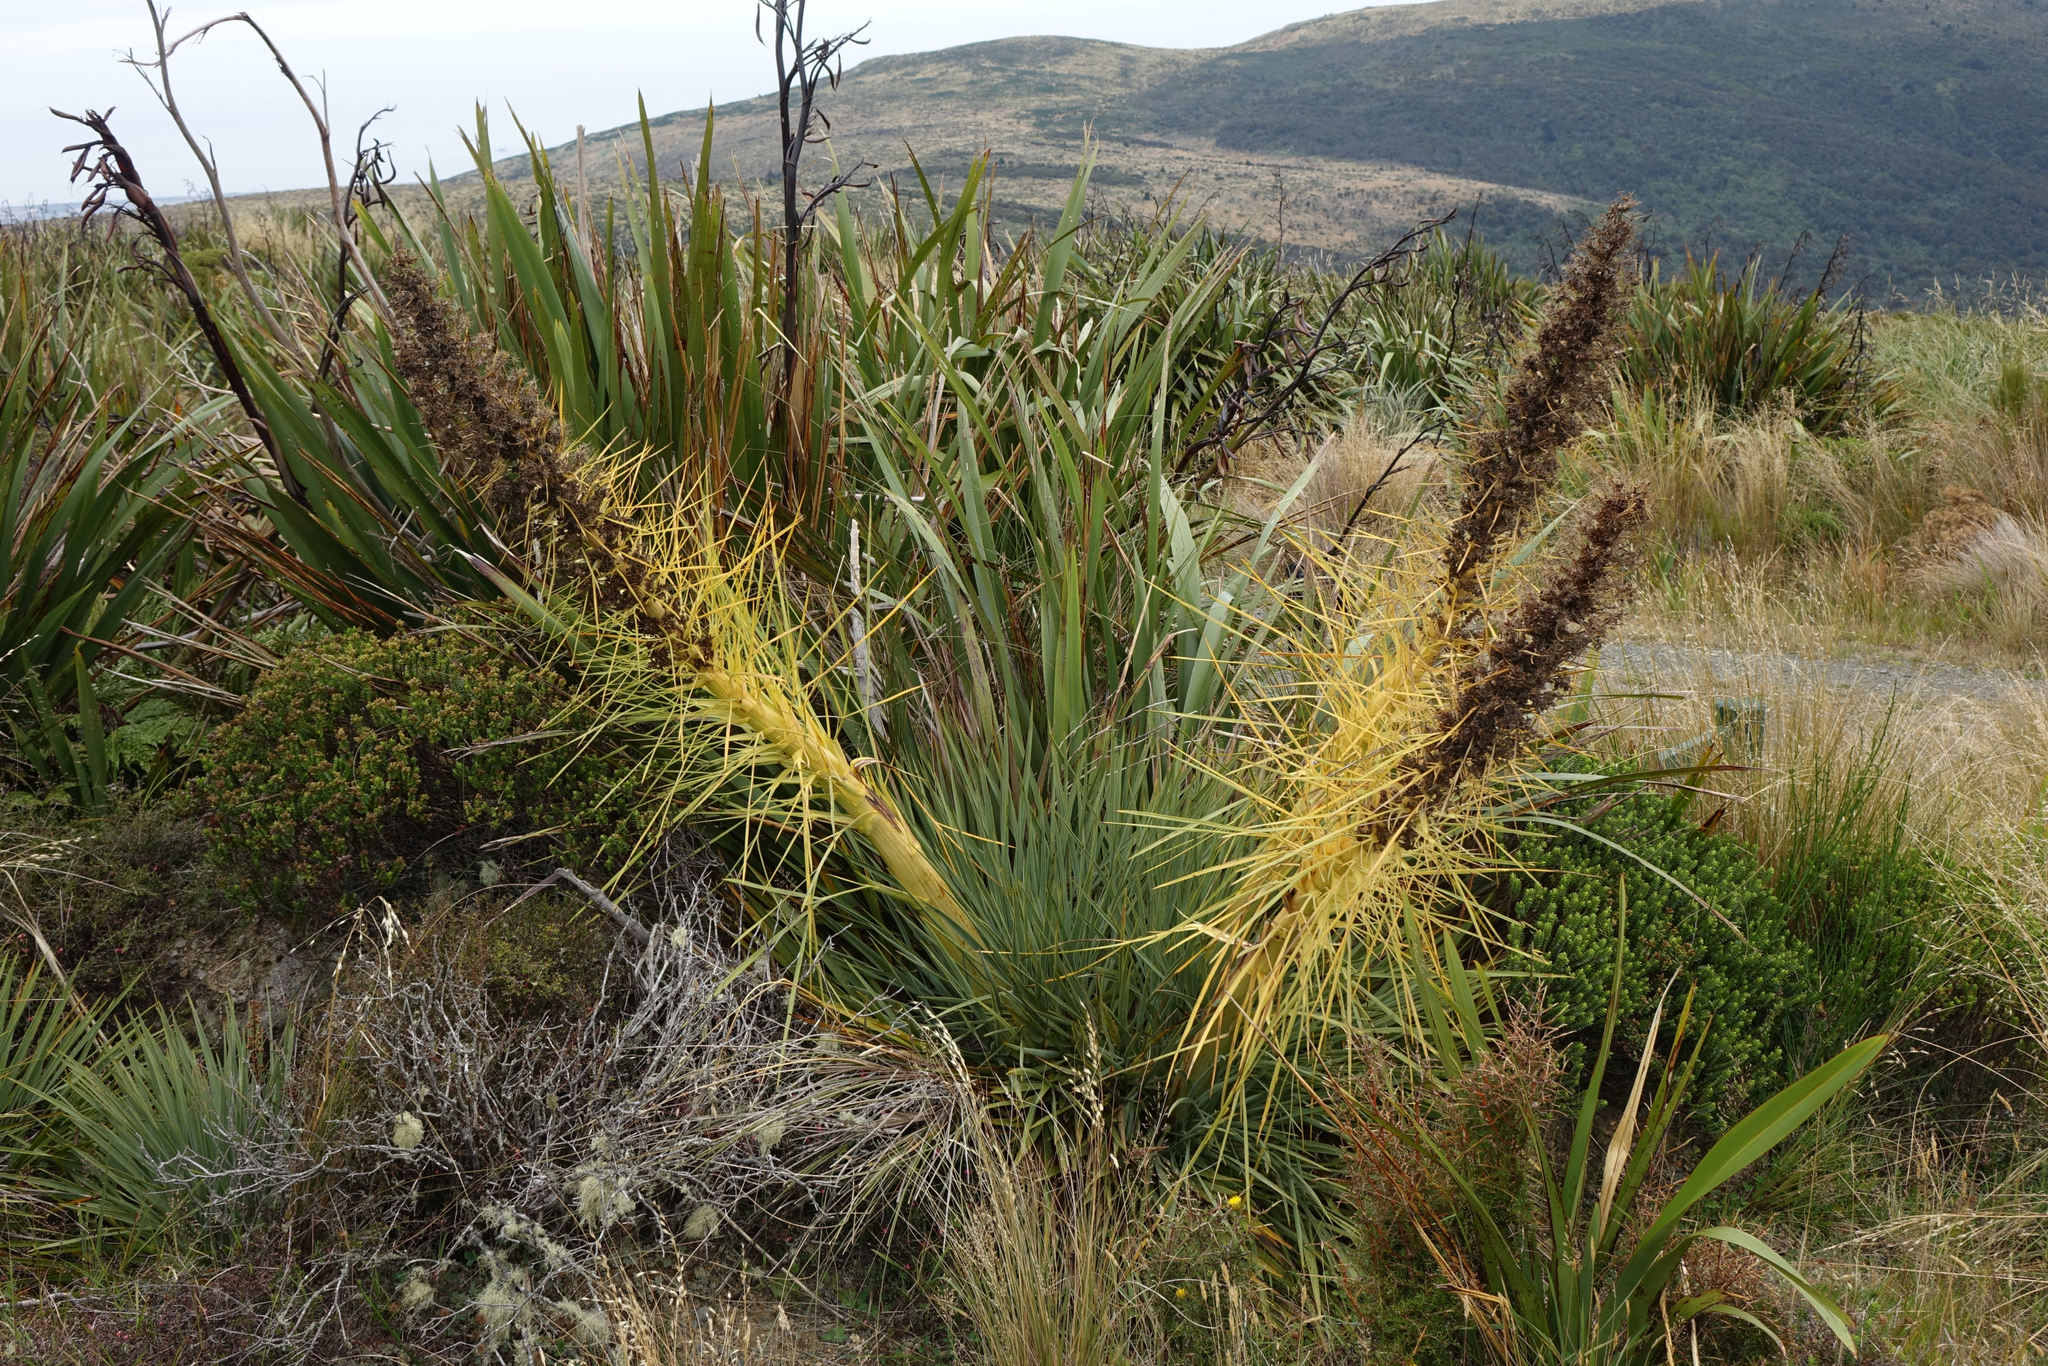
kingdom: Plantae
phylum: Tracheophyta
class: Magnoliopsida
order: Apiales
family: Apiaceae
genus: Aciphylla
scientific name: Aciphylla scott-thomsonii
